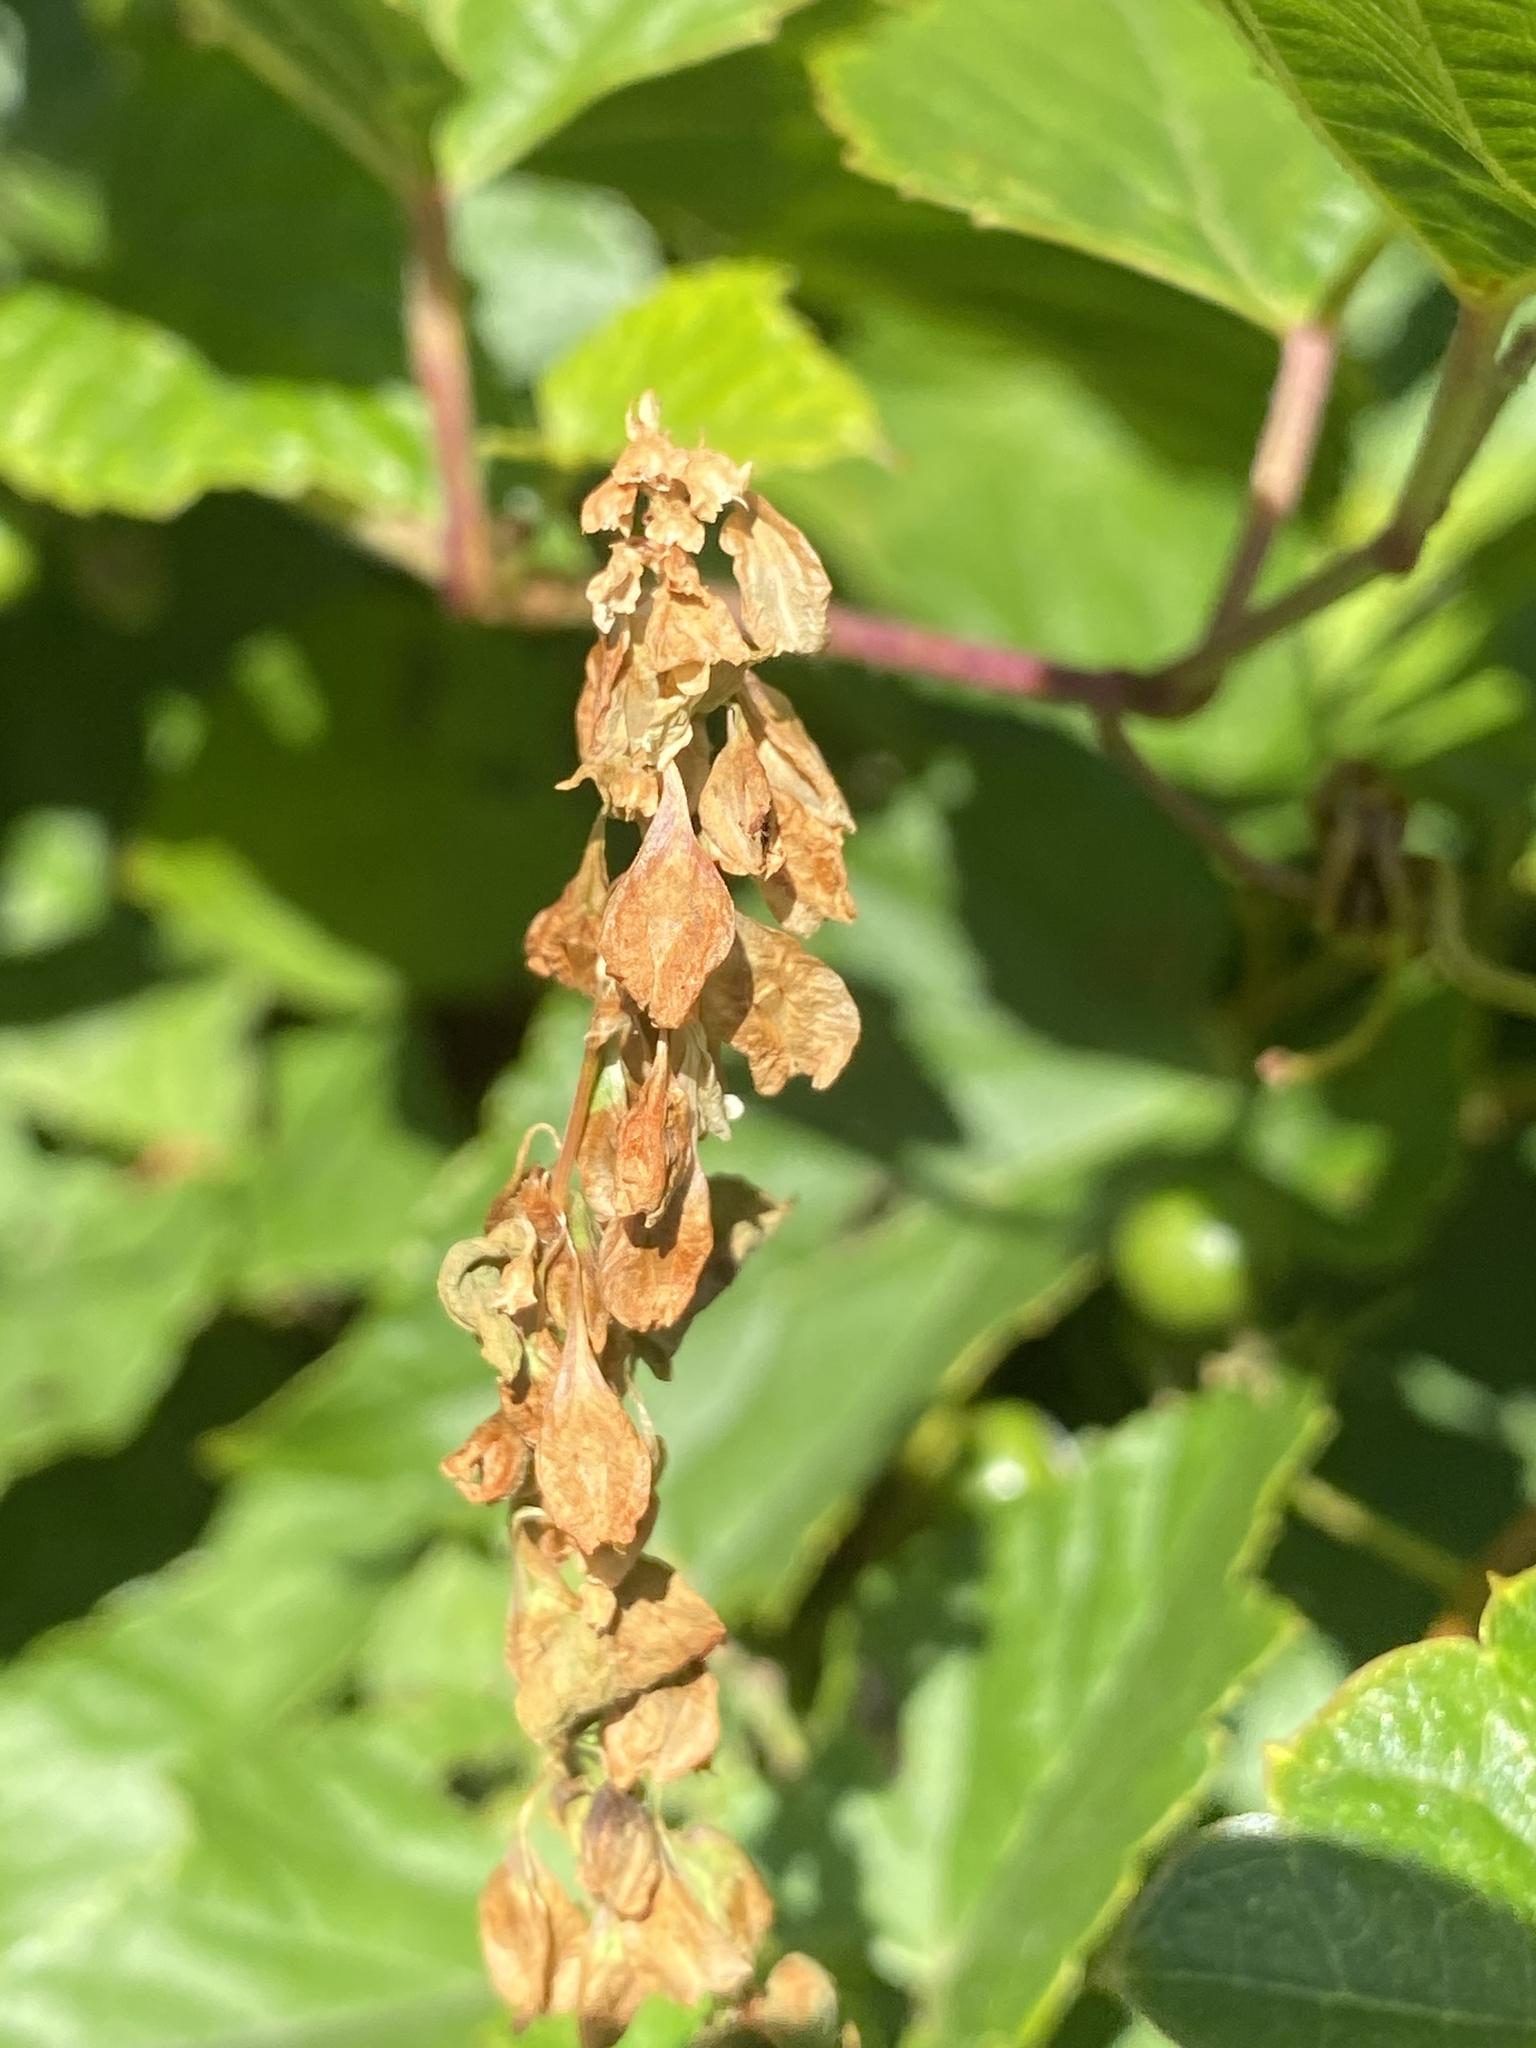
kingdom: Plantae
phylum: Tracheophyta
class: Magnoliopsida
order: Caryophyllales
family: Polygonaceae
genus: Fallopia
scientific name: Fallopia scandens
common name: Climbing false buckwheat
